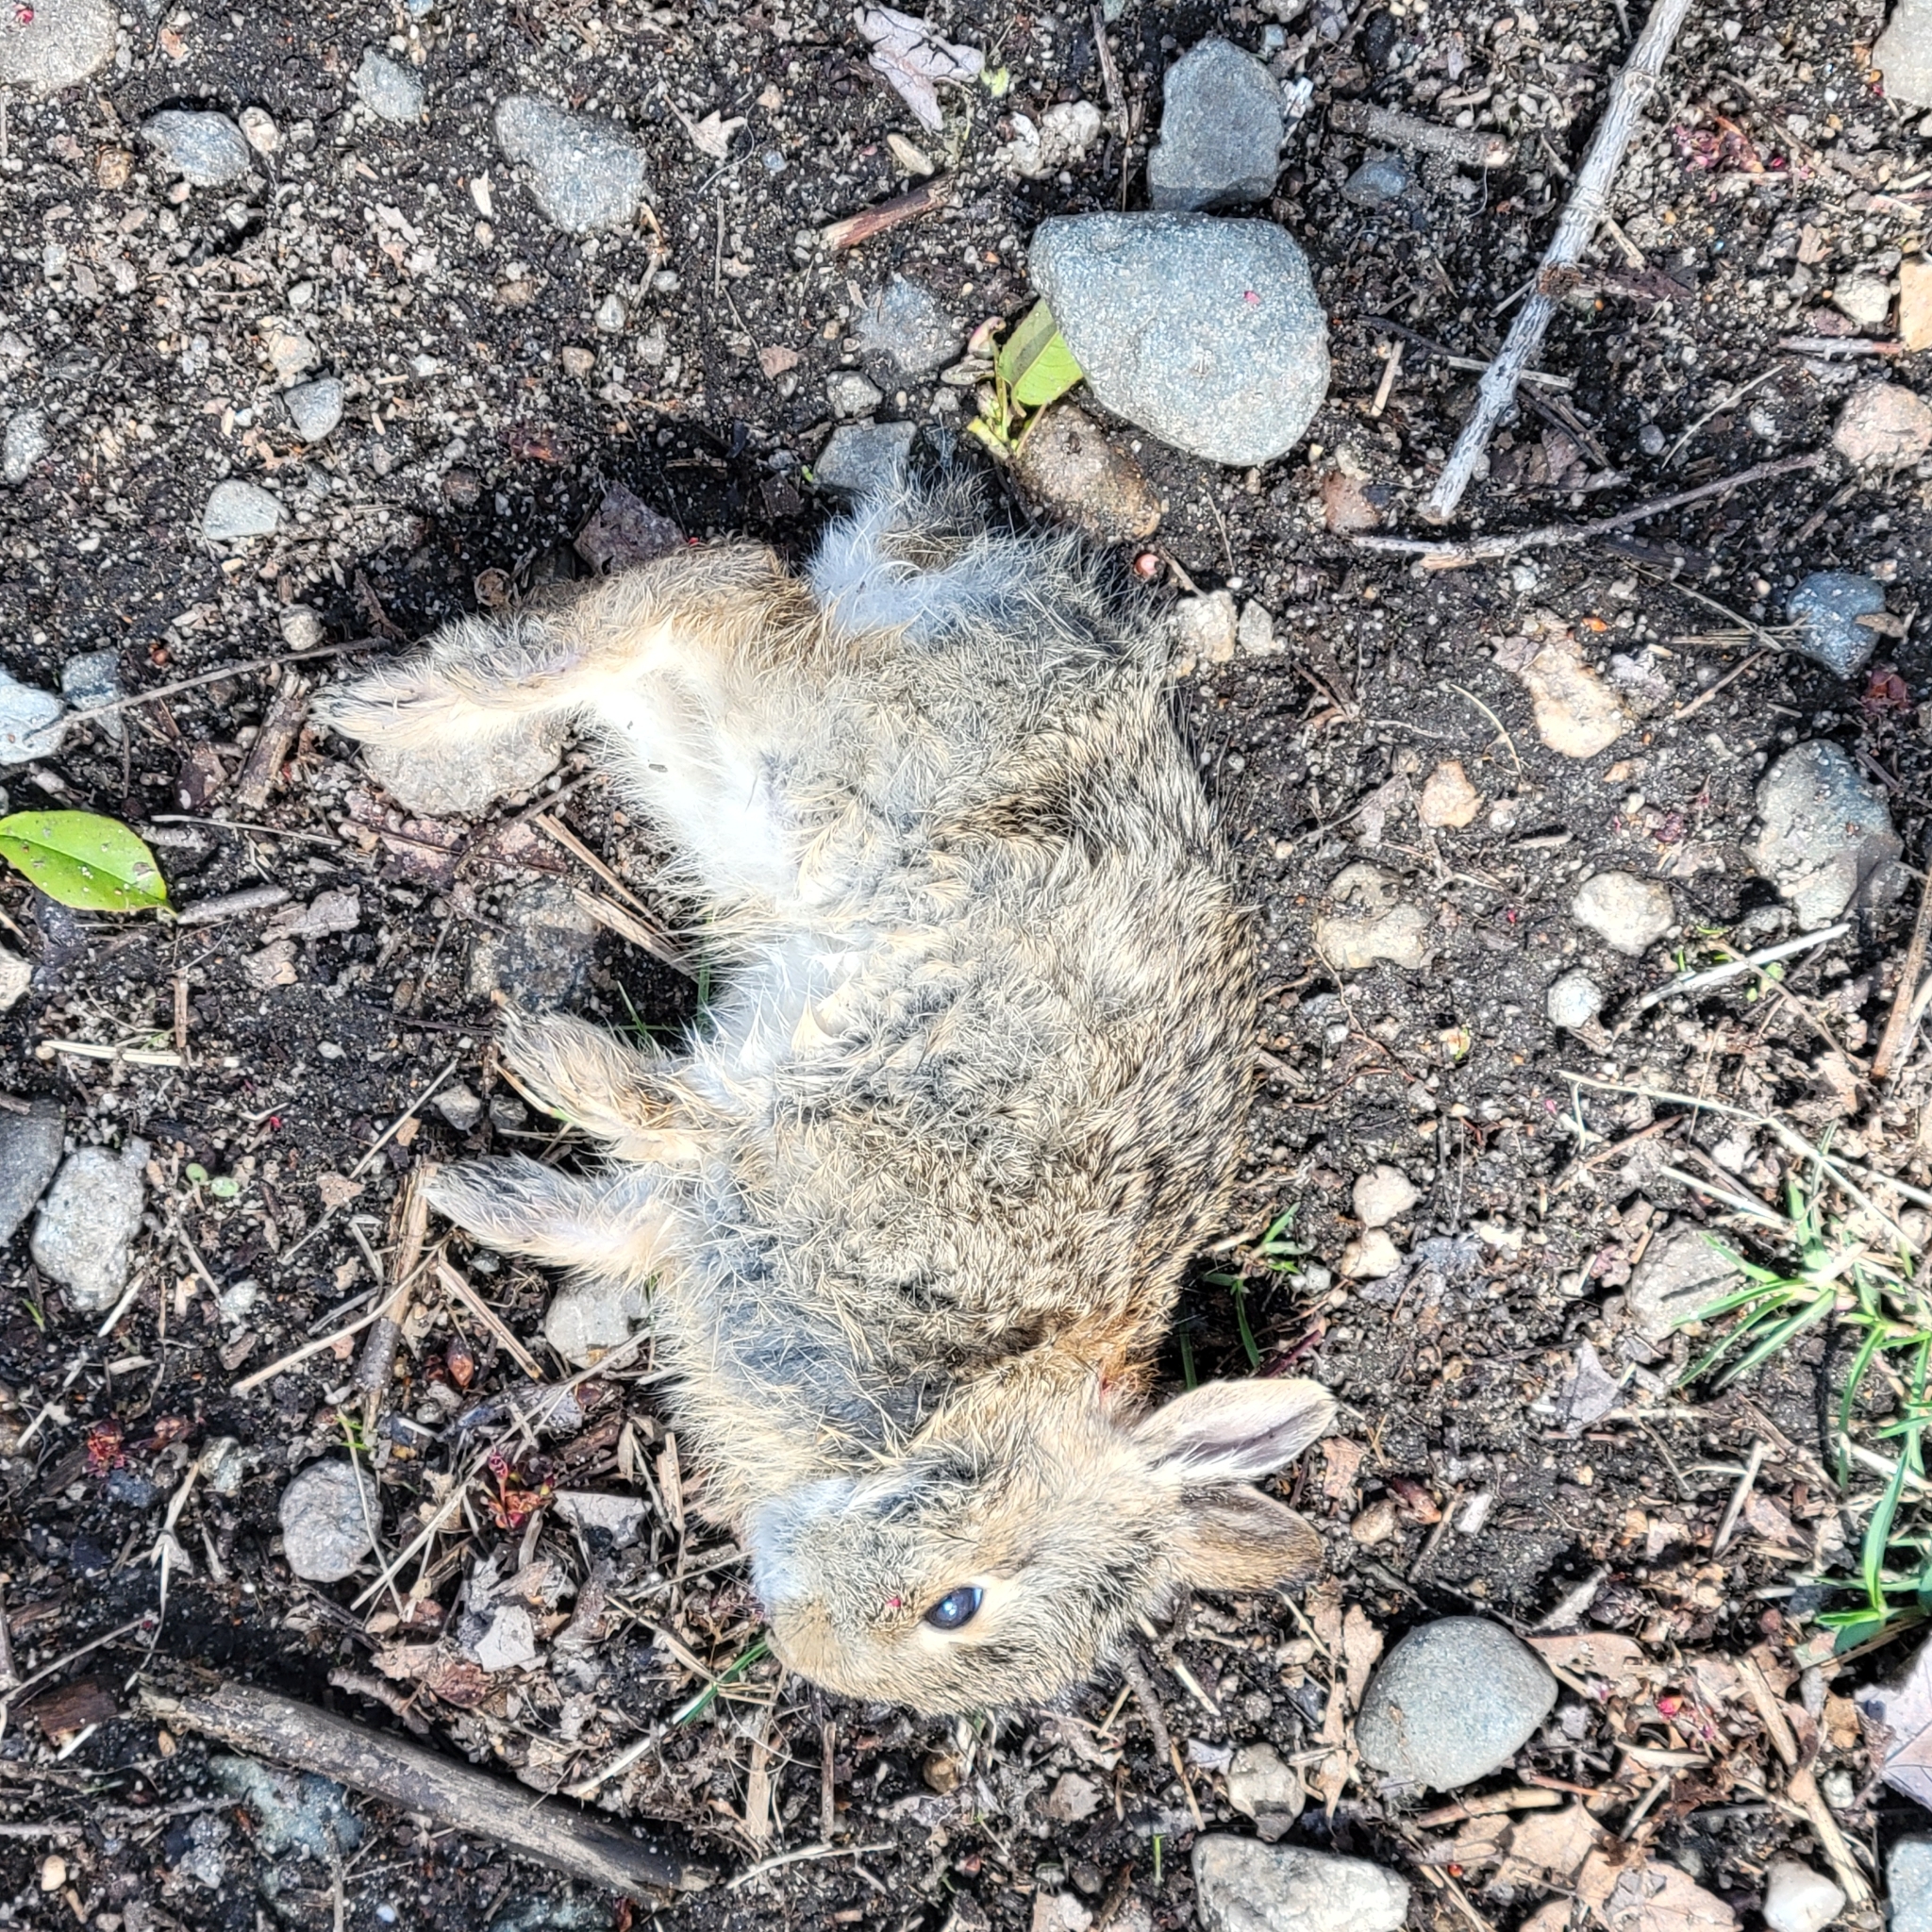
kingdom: Animalia
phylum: Chordata
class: Mammalia
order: Lagomorpha
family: Leporidae
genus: Sylvilagus
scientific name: Sylvilagus floridanus
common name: Eastern cottontail
